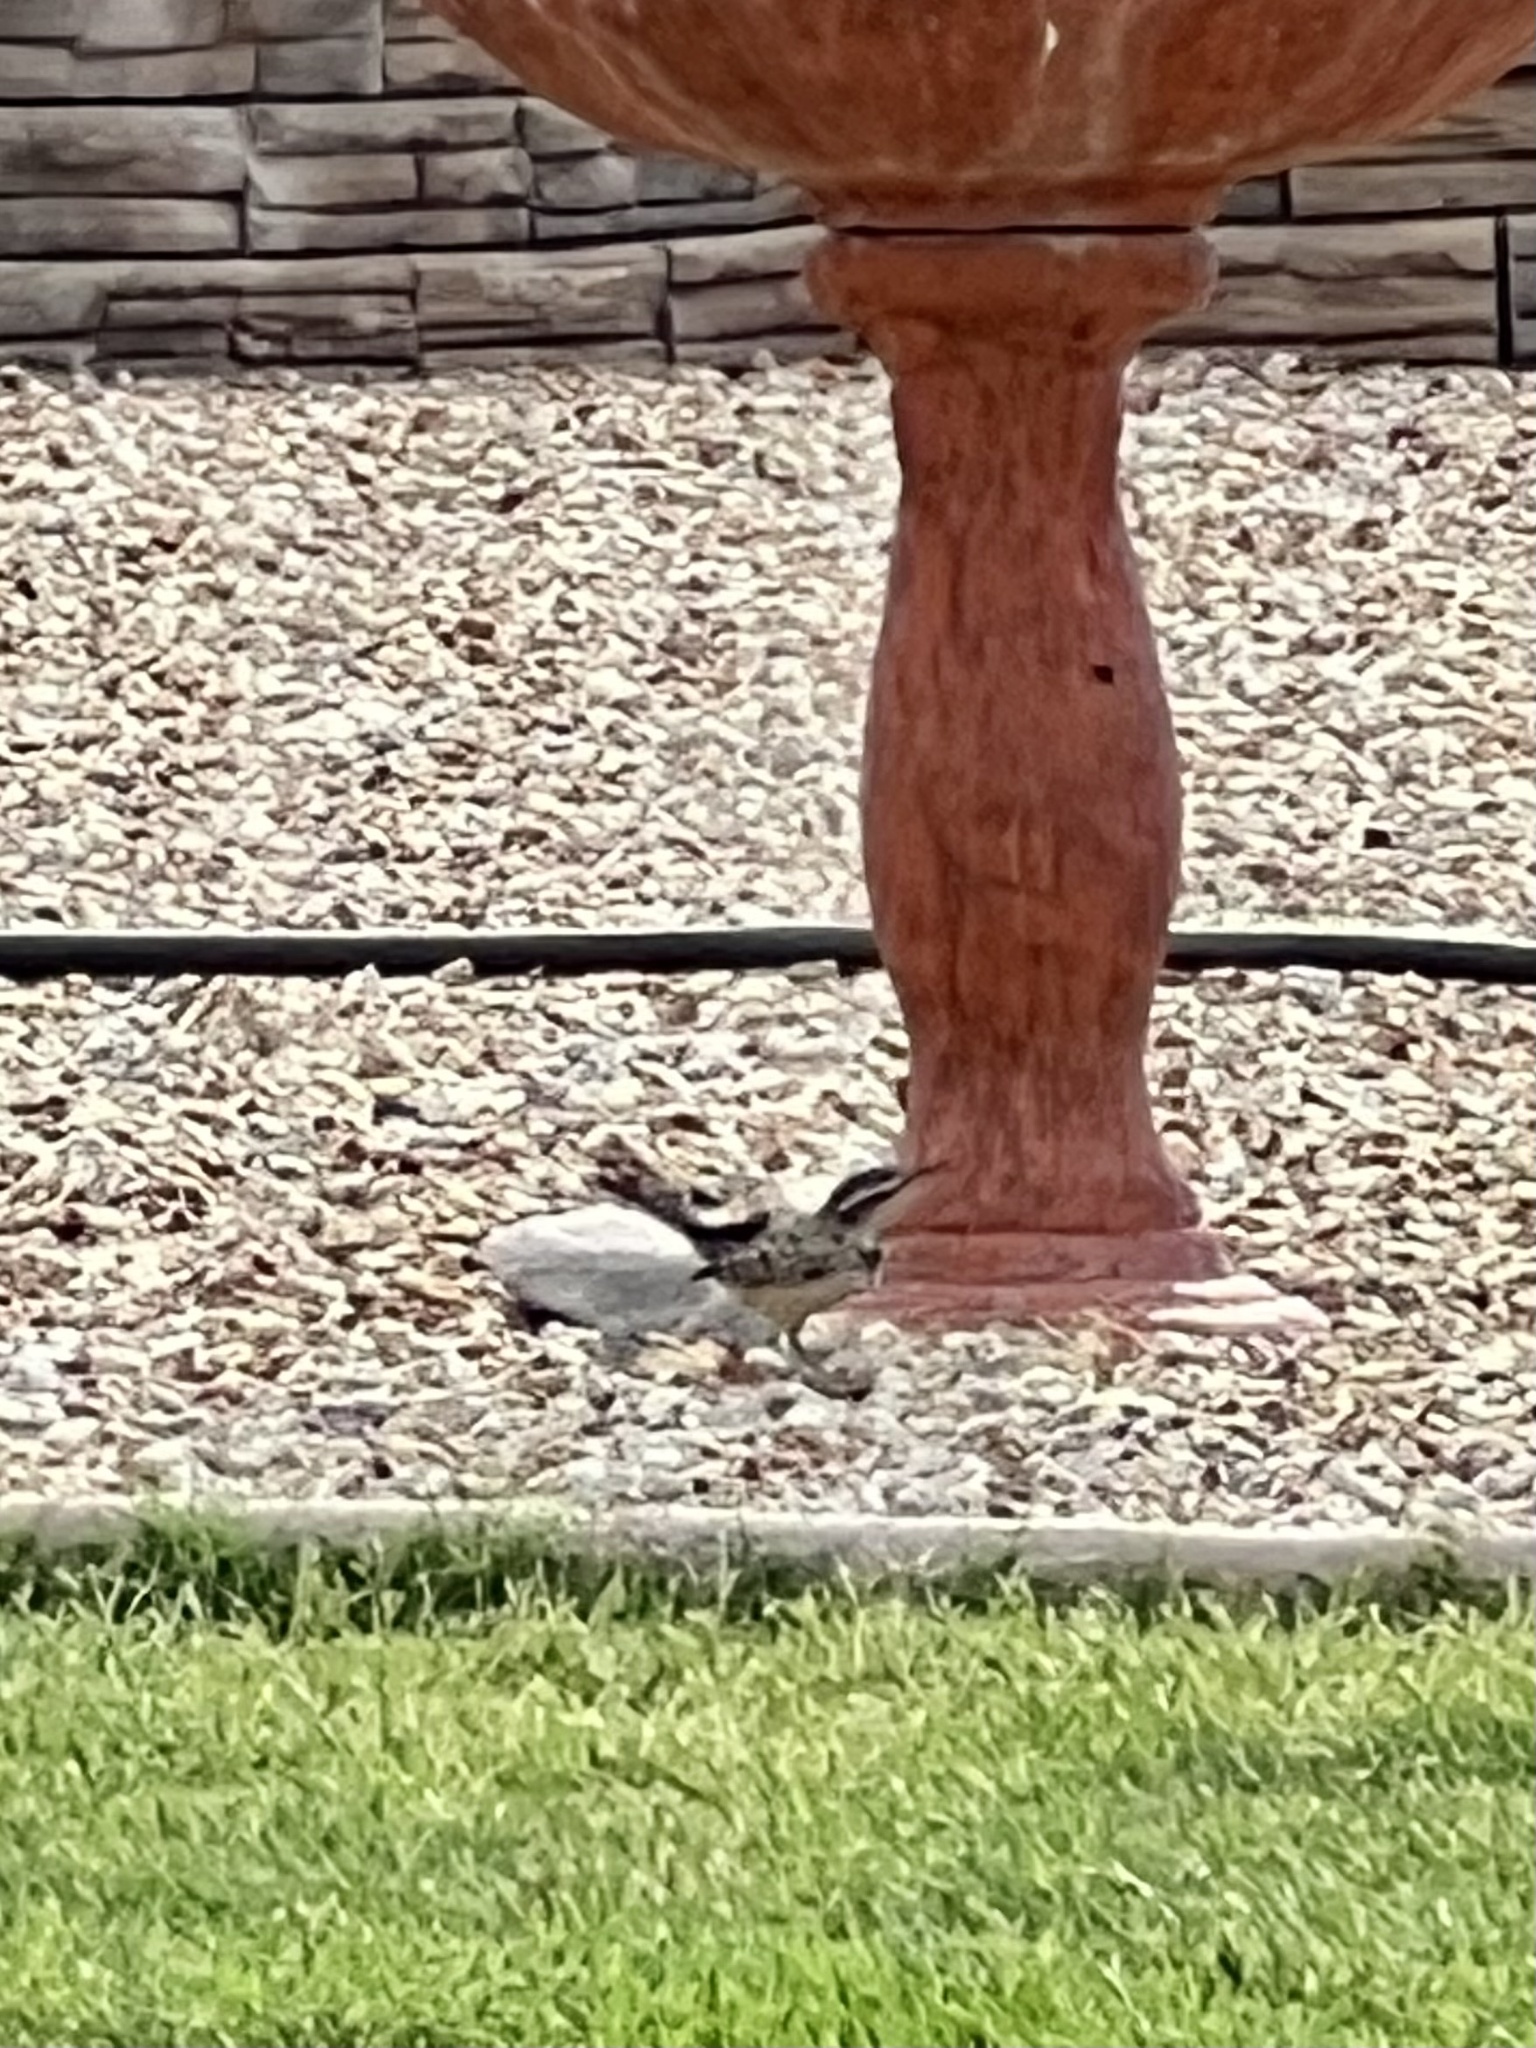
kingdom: Animalia
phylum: Chordata
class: Aves
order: Passeriformes
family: Troglodytidae
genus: Campylorhynchus
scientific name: Campylorhynchus brunneicapillus
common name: Cactus wren
